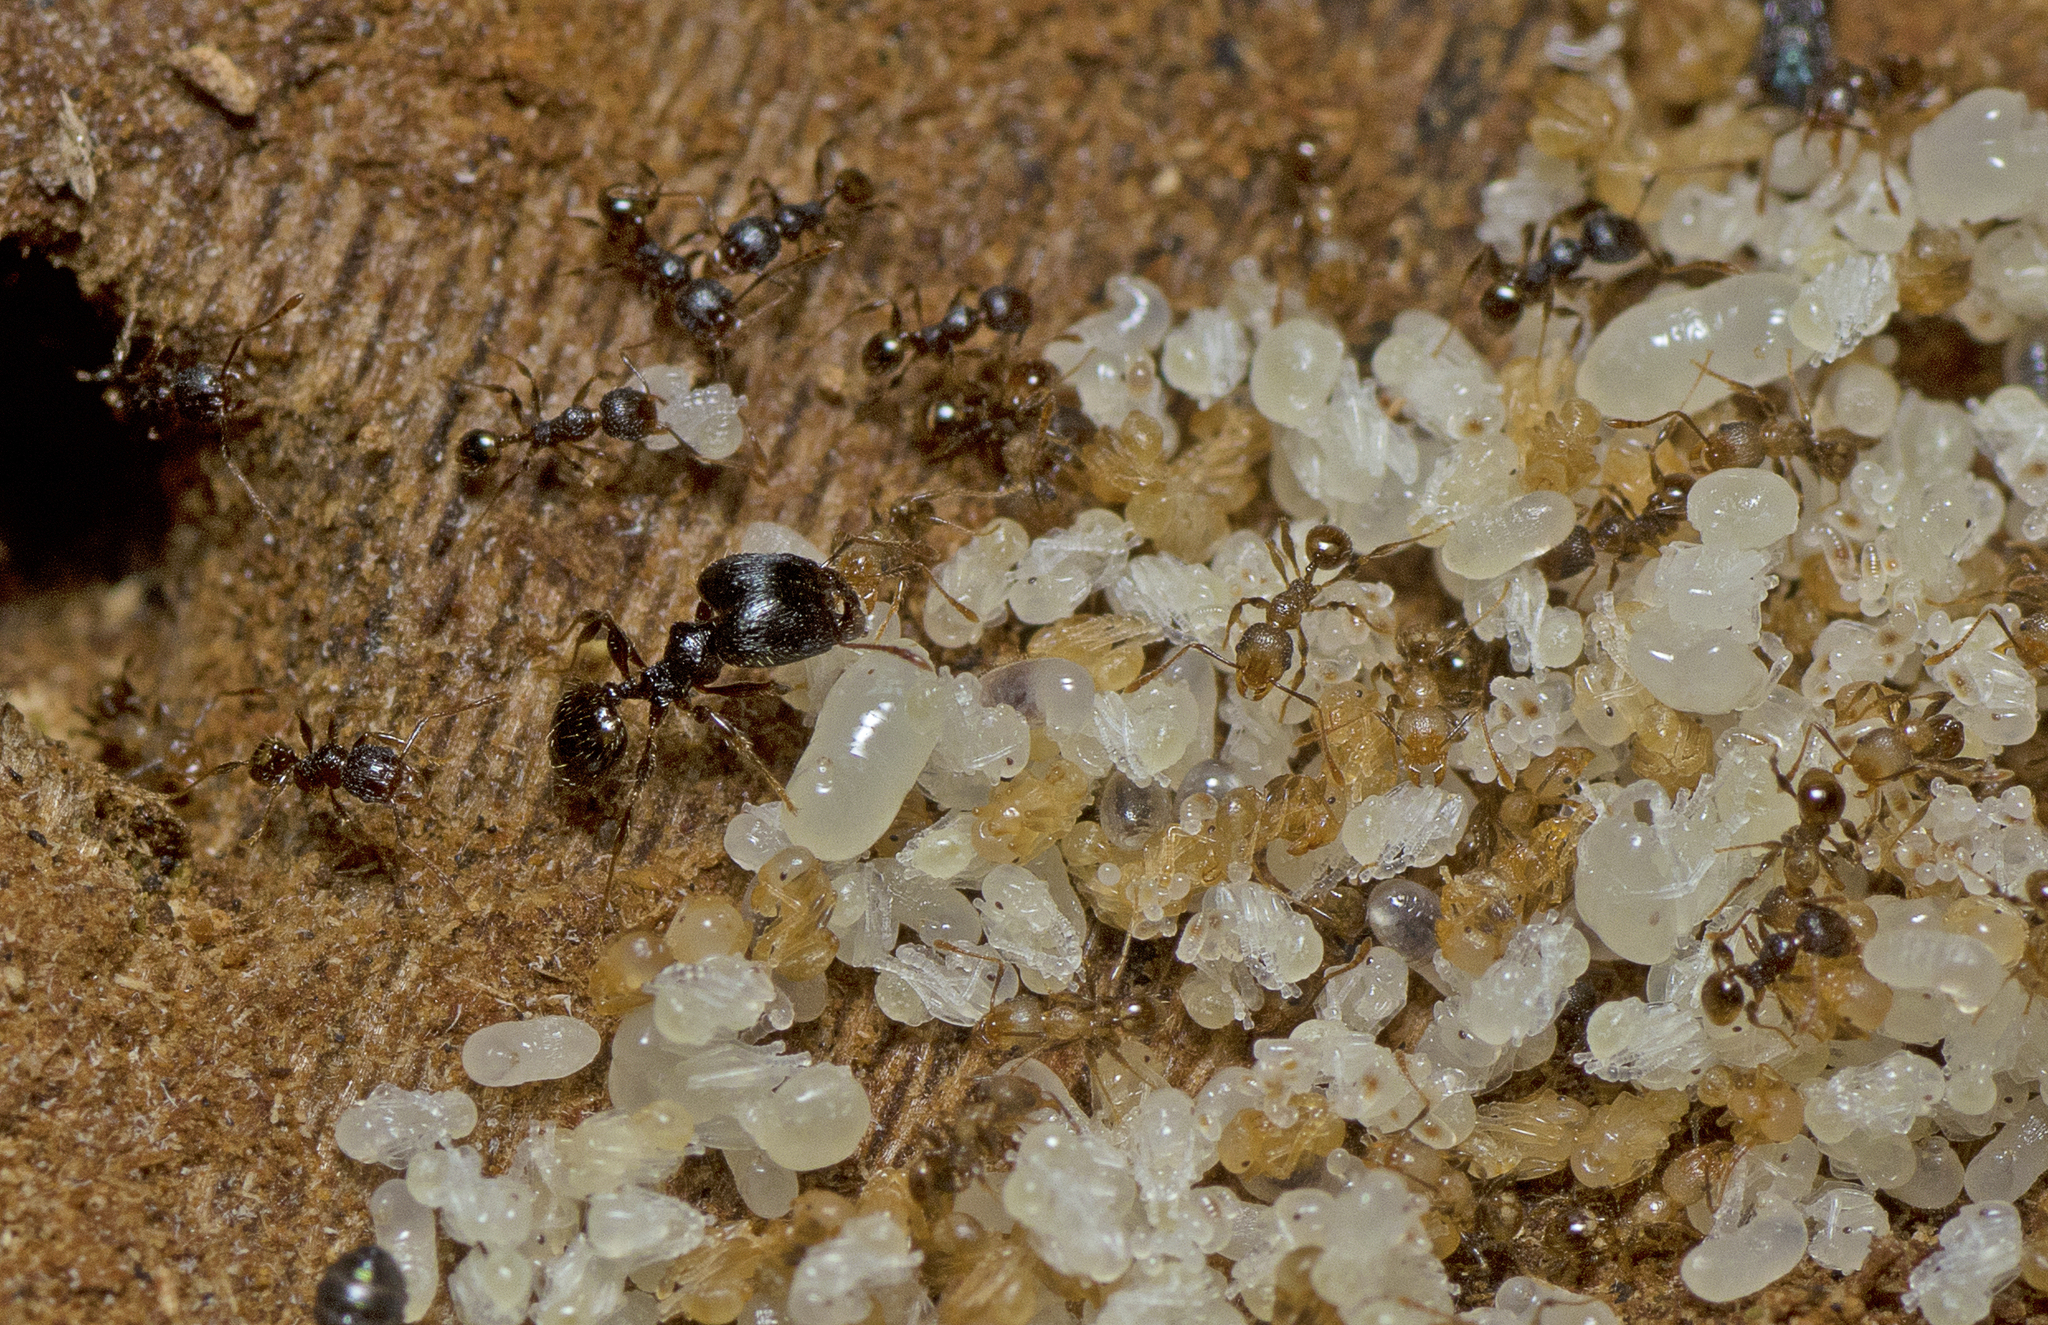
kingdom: Animalia
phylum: Arthropoda
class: Insecta
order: Hymenoptera
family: Formicidae
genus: Pheidole
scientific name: Pheidole anthracina
